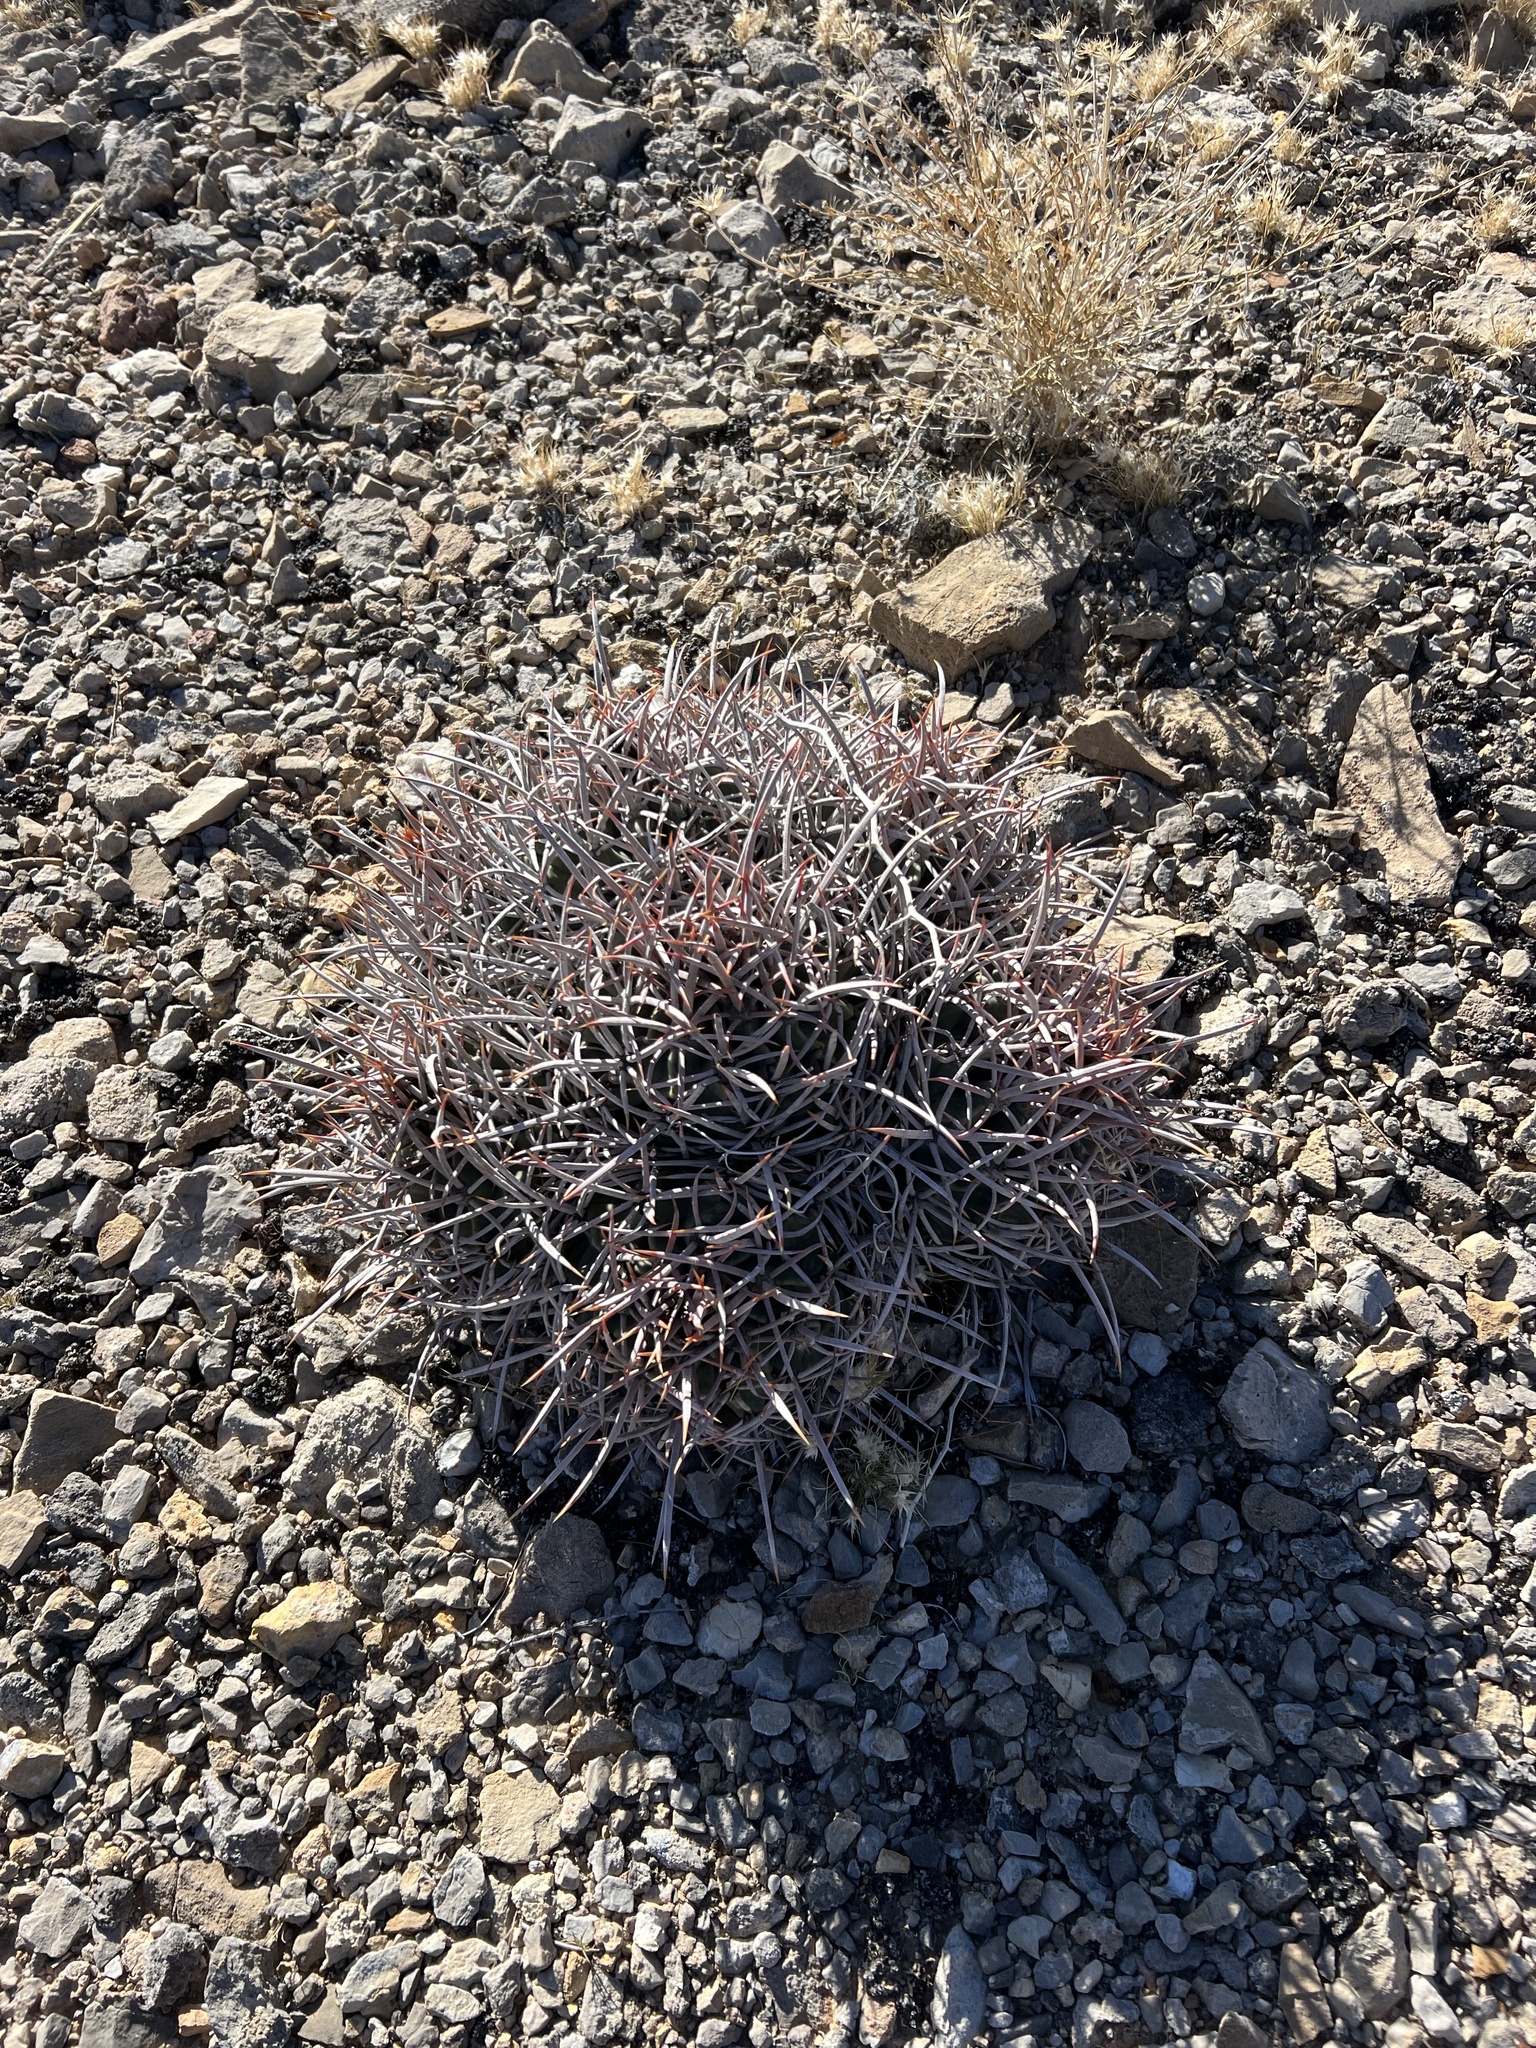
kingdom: Plantae
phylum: Tracheophyta
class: Magnoliopsida
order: Caryophyllales
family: Cactaceae
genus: Echinocactus
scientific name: Echinocactus polycephalus
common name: Cottontop cactus
